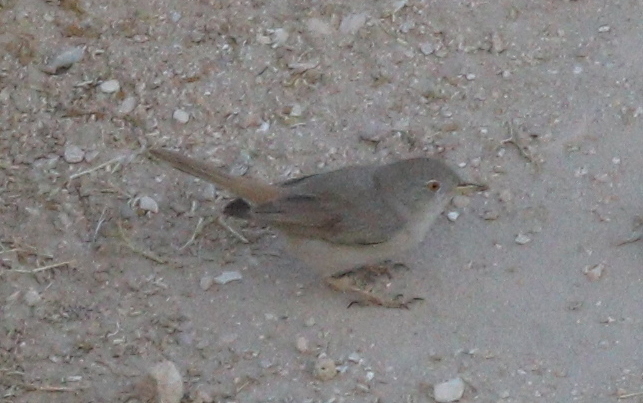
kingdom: Animalia
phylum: Chordata
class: Aves
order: Passeriformes
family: Sylviidae
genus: Sylvia
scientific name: Sylvia nana
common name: Asian desert warbler
